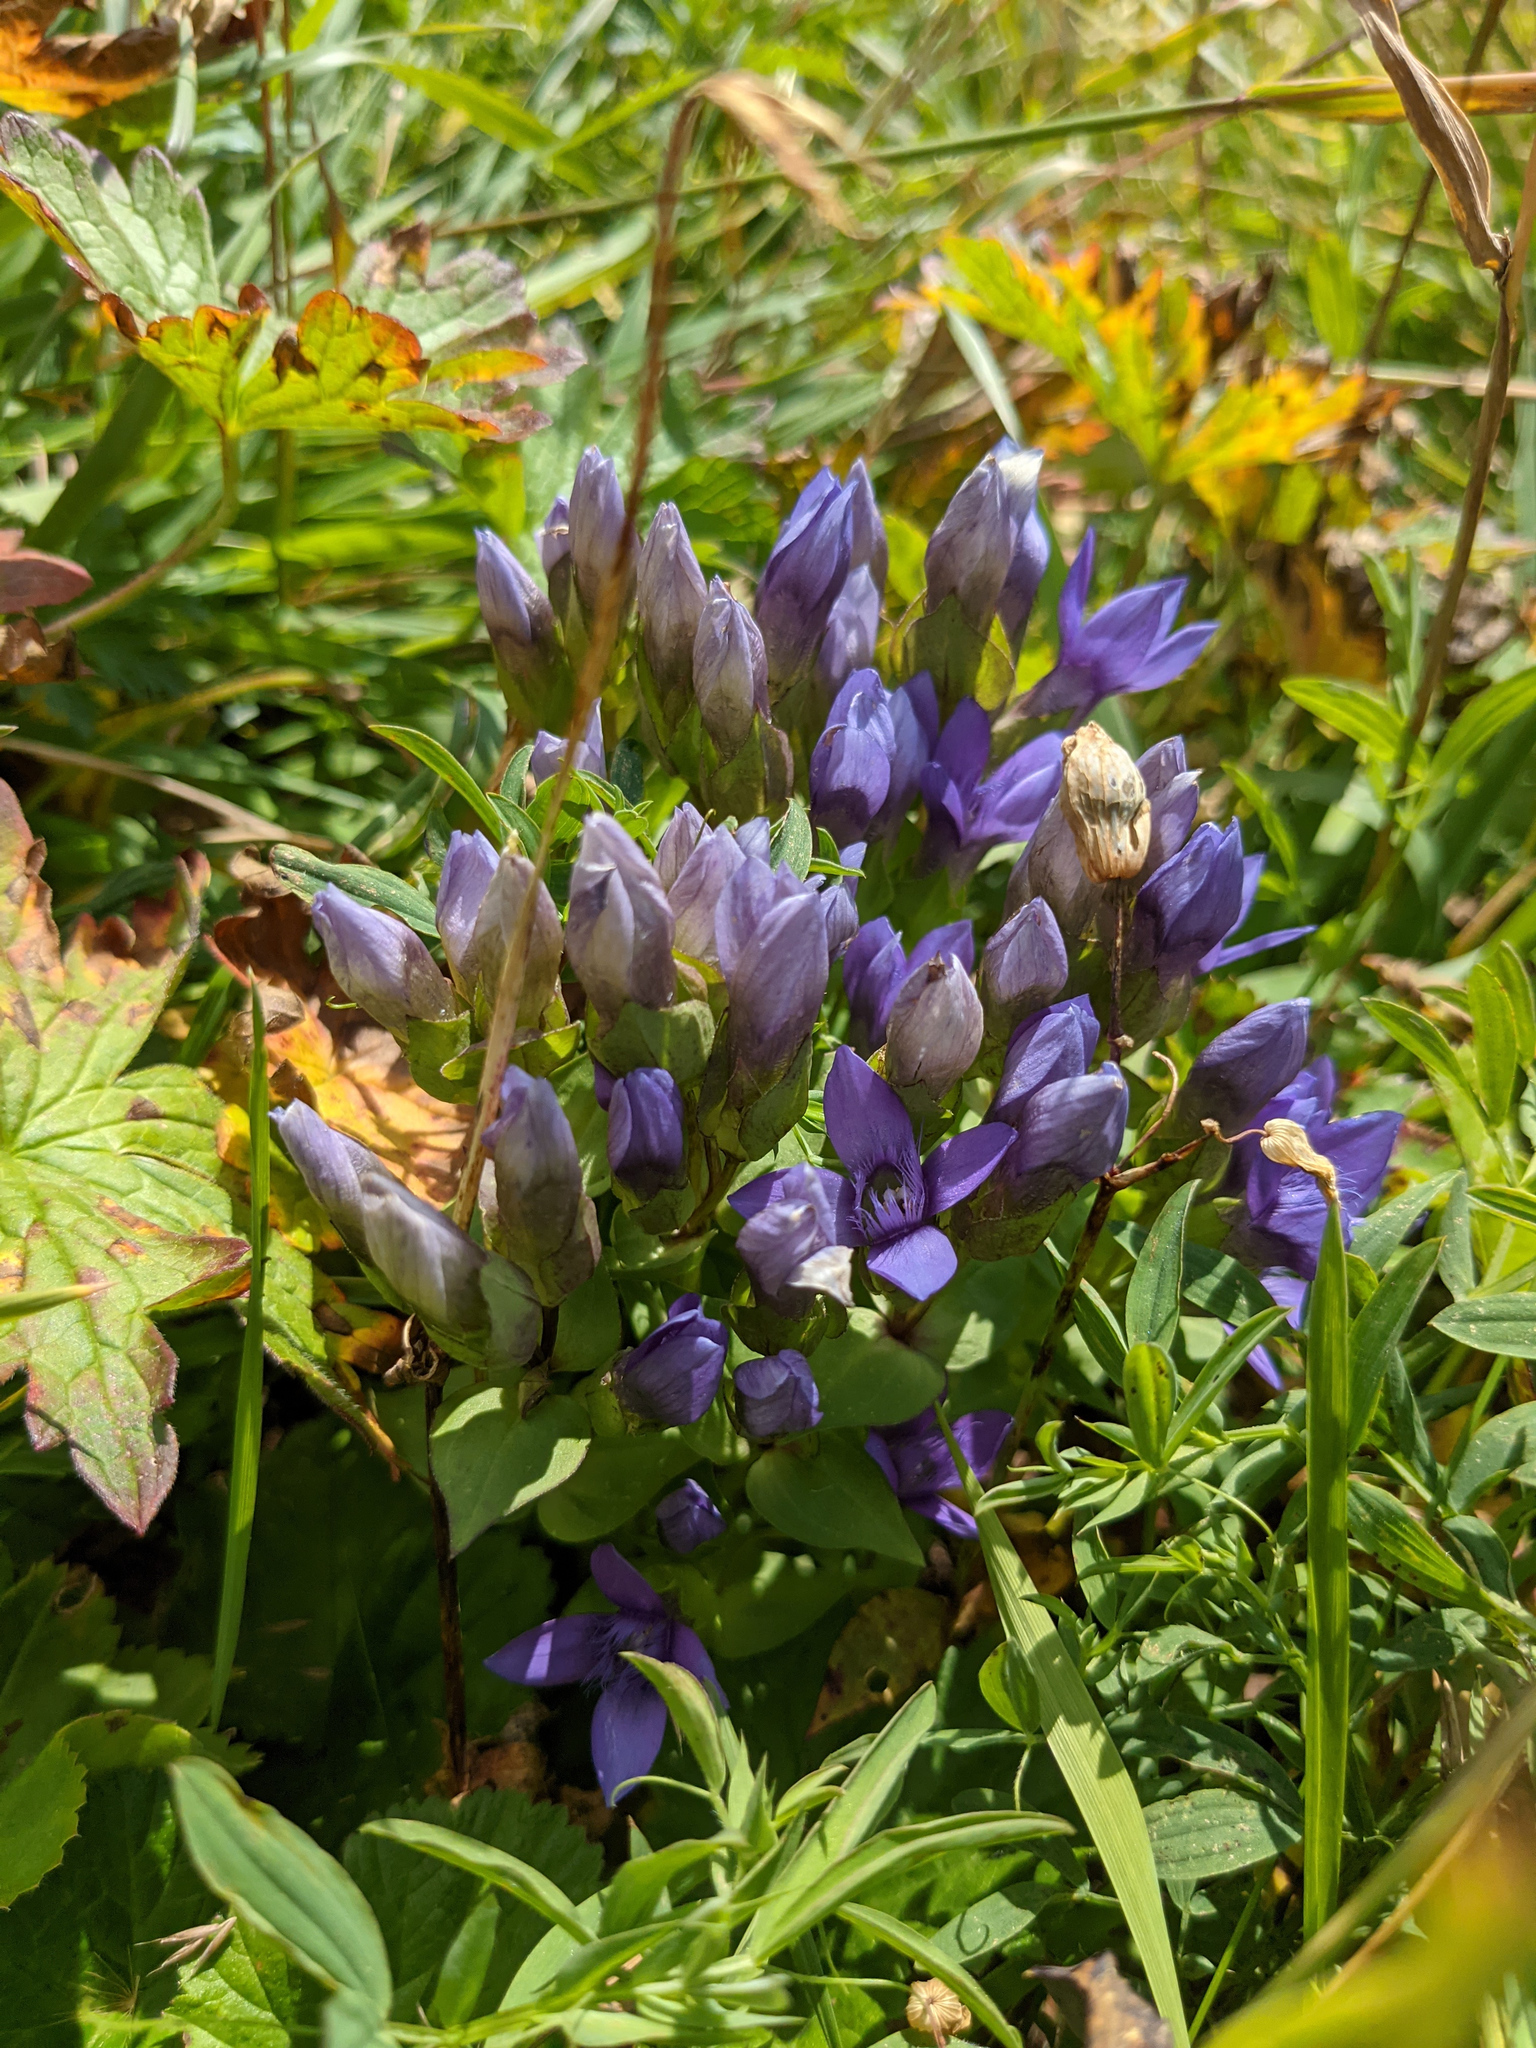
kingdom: Plantae
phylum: Tracheophyta
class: Magnoliopsida
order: Gentianales
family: Gentianaceae
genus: Gentianella
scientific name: Gentianella campestris
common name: Field gentian
